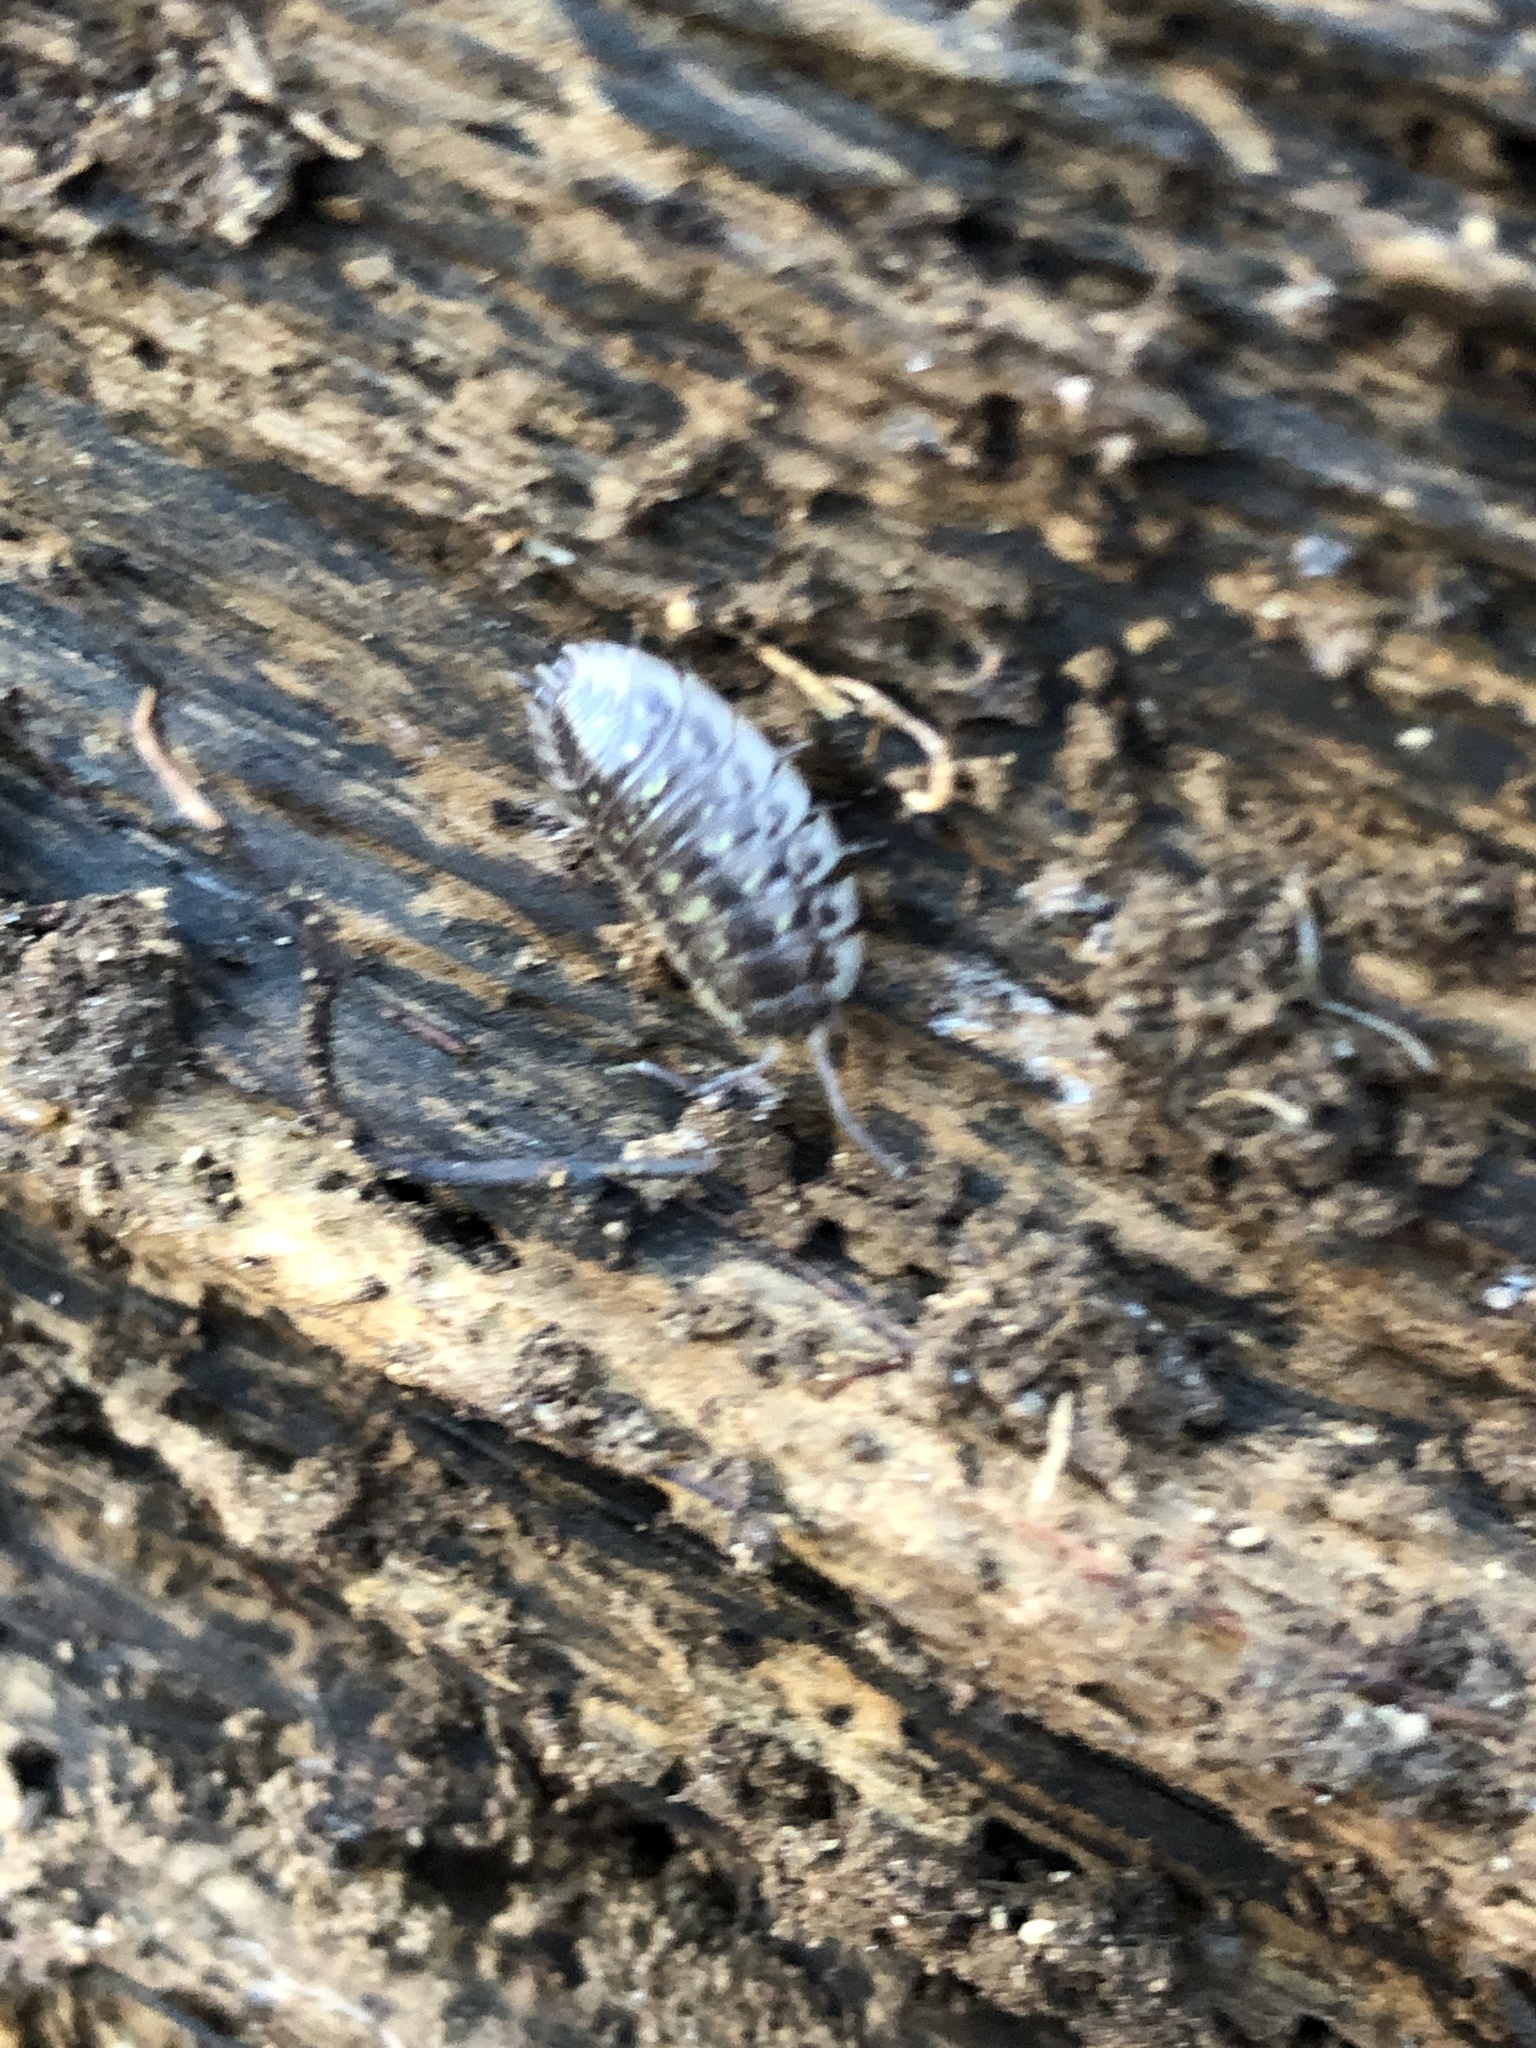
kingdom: Animalia
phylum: Arthropoda
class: Malacostraca
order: Isopoda
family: Oniscidae
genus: Oniscus
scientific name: Oniscus asellus
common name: Common shiny woodlouse
